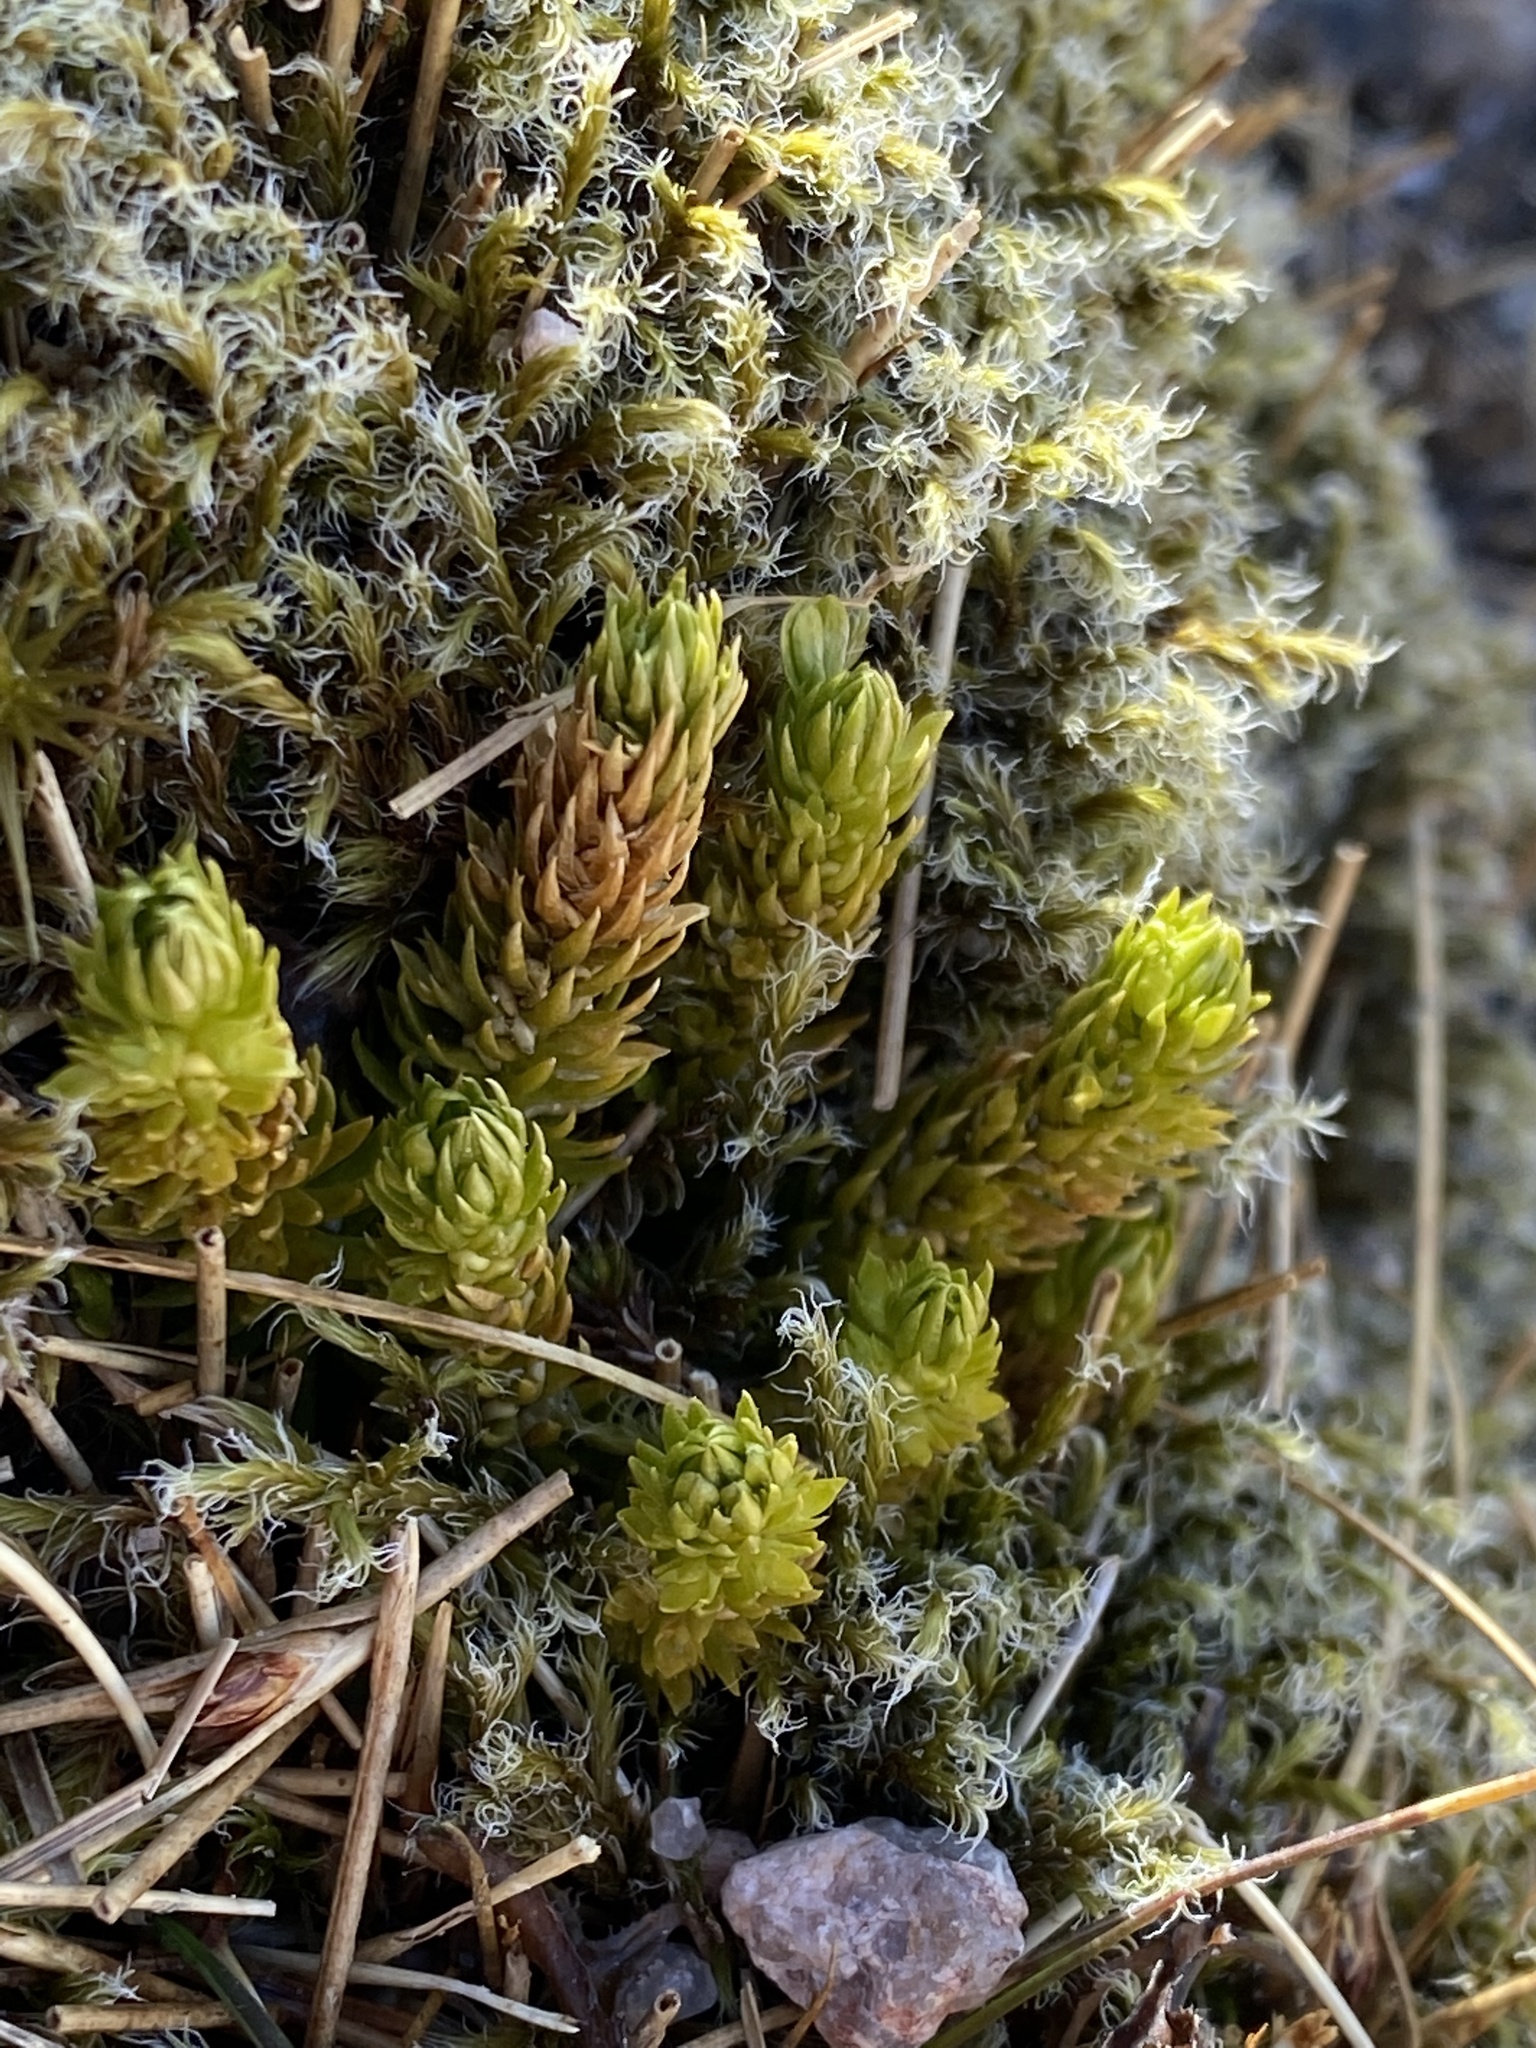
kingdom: Plantae
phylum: Tracheophyta
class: Lycopodiopsida
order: Lycopodiales
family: Lycopodiaceae
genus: Huperzia
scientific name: Huperzia selago
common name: Northern firmoss
